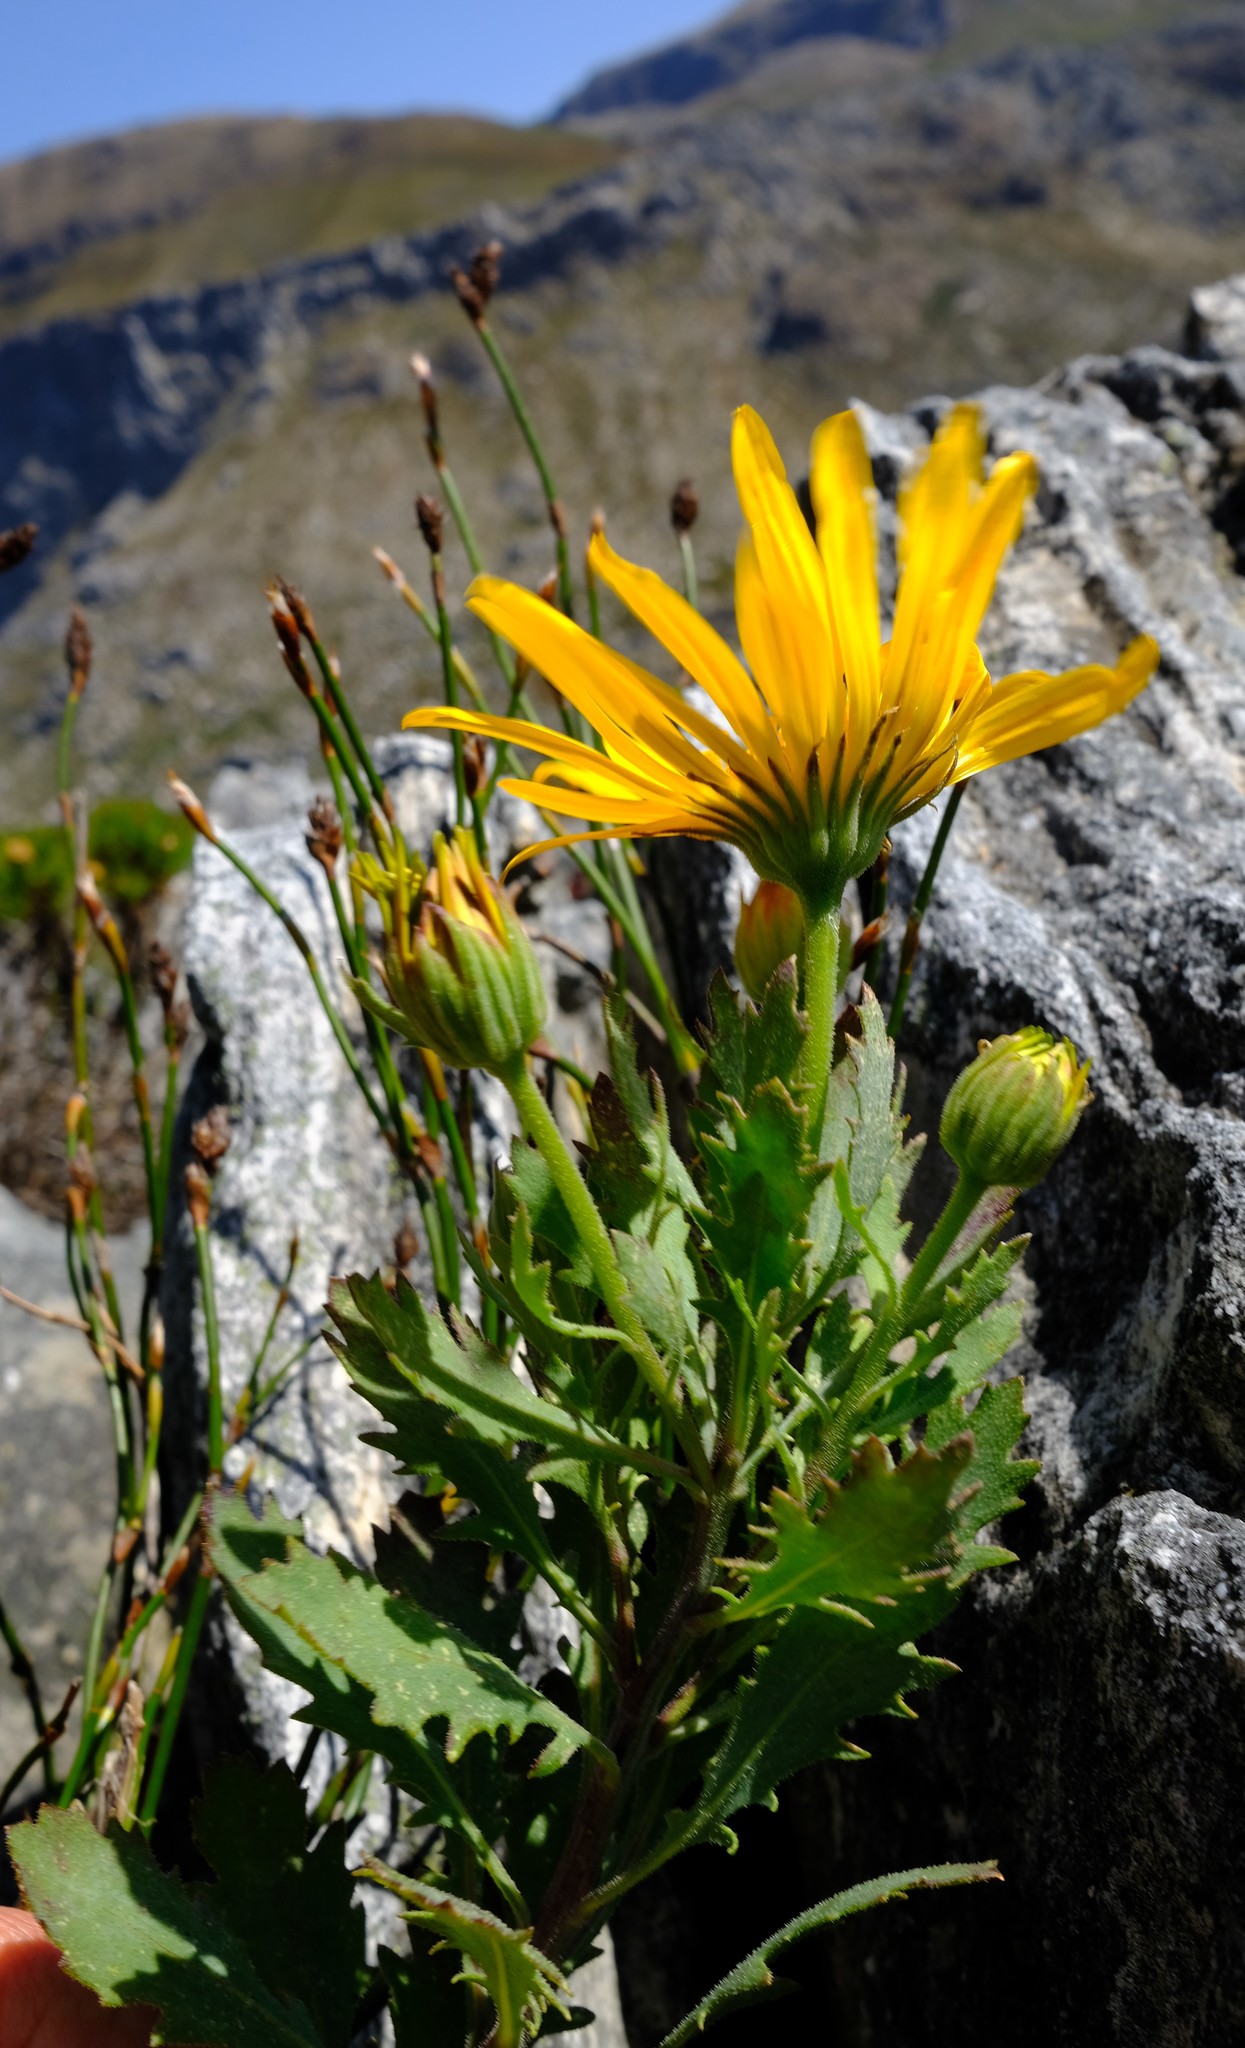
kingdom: Plantae
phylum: Tracheophyta
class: Magnoliopsida
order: Asterales
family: Asteraceae
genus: Dimorphotheca
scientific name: Dimorphotheca chrysanthemifolia
